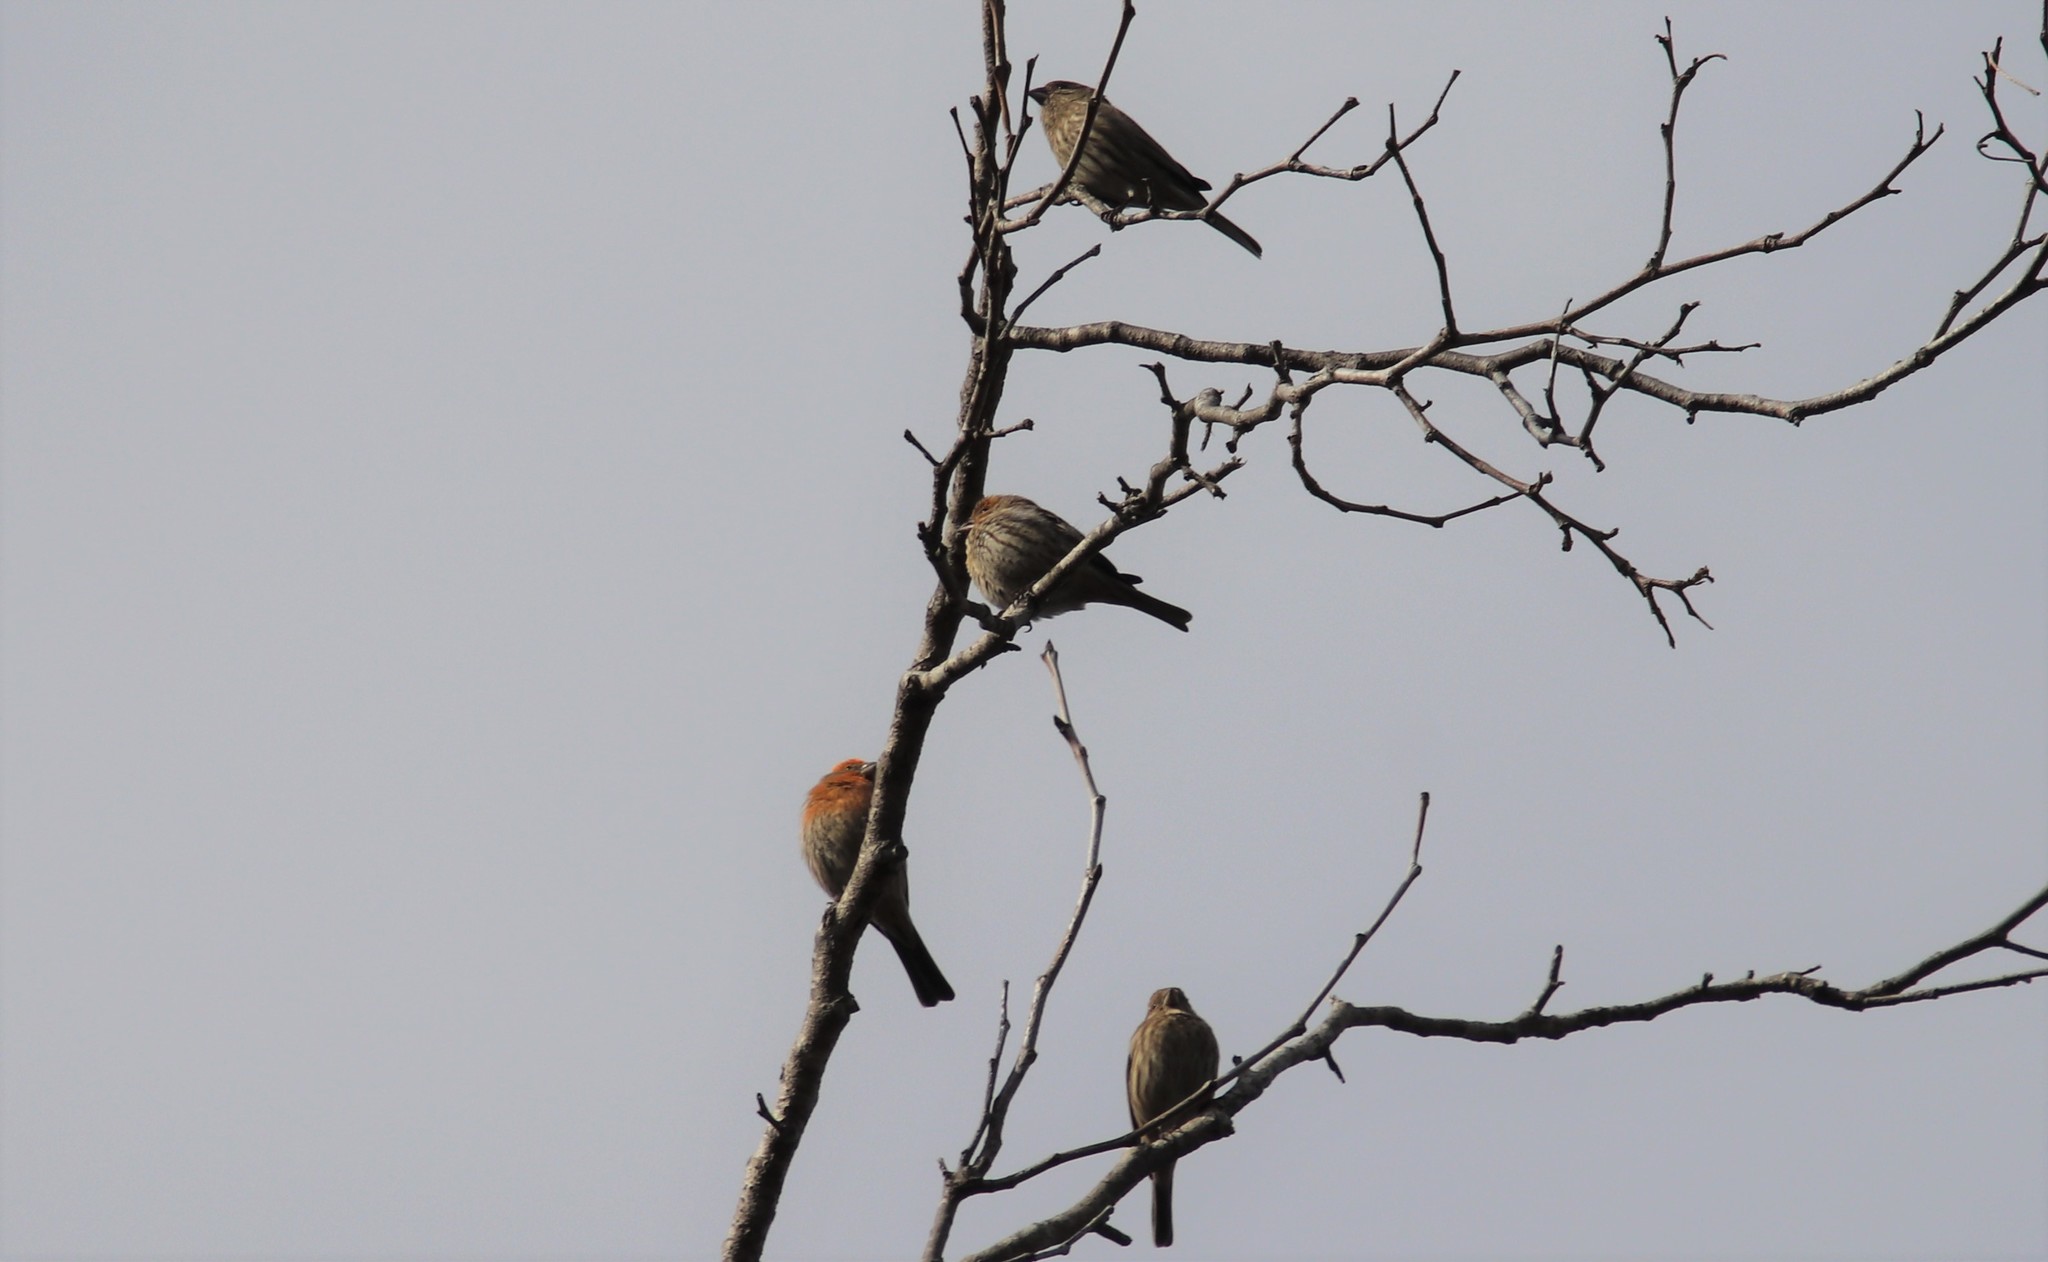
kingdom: Animalia
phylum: Chordata
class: Aves
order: Passeriformes
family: Fringillidae
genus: Haemorhous
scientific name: Haemorhous mexicanus
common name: House finch
